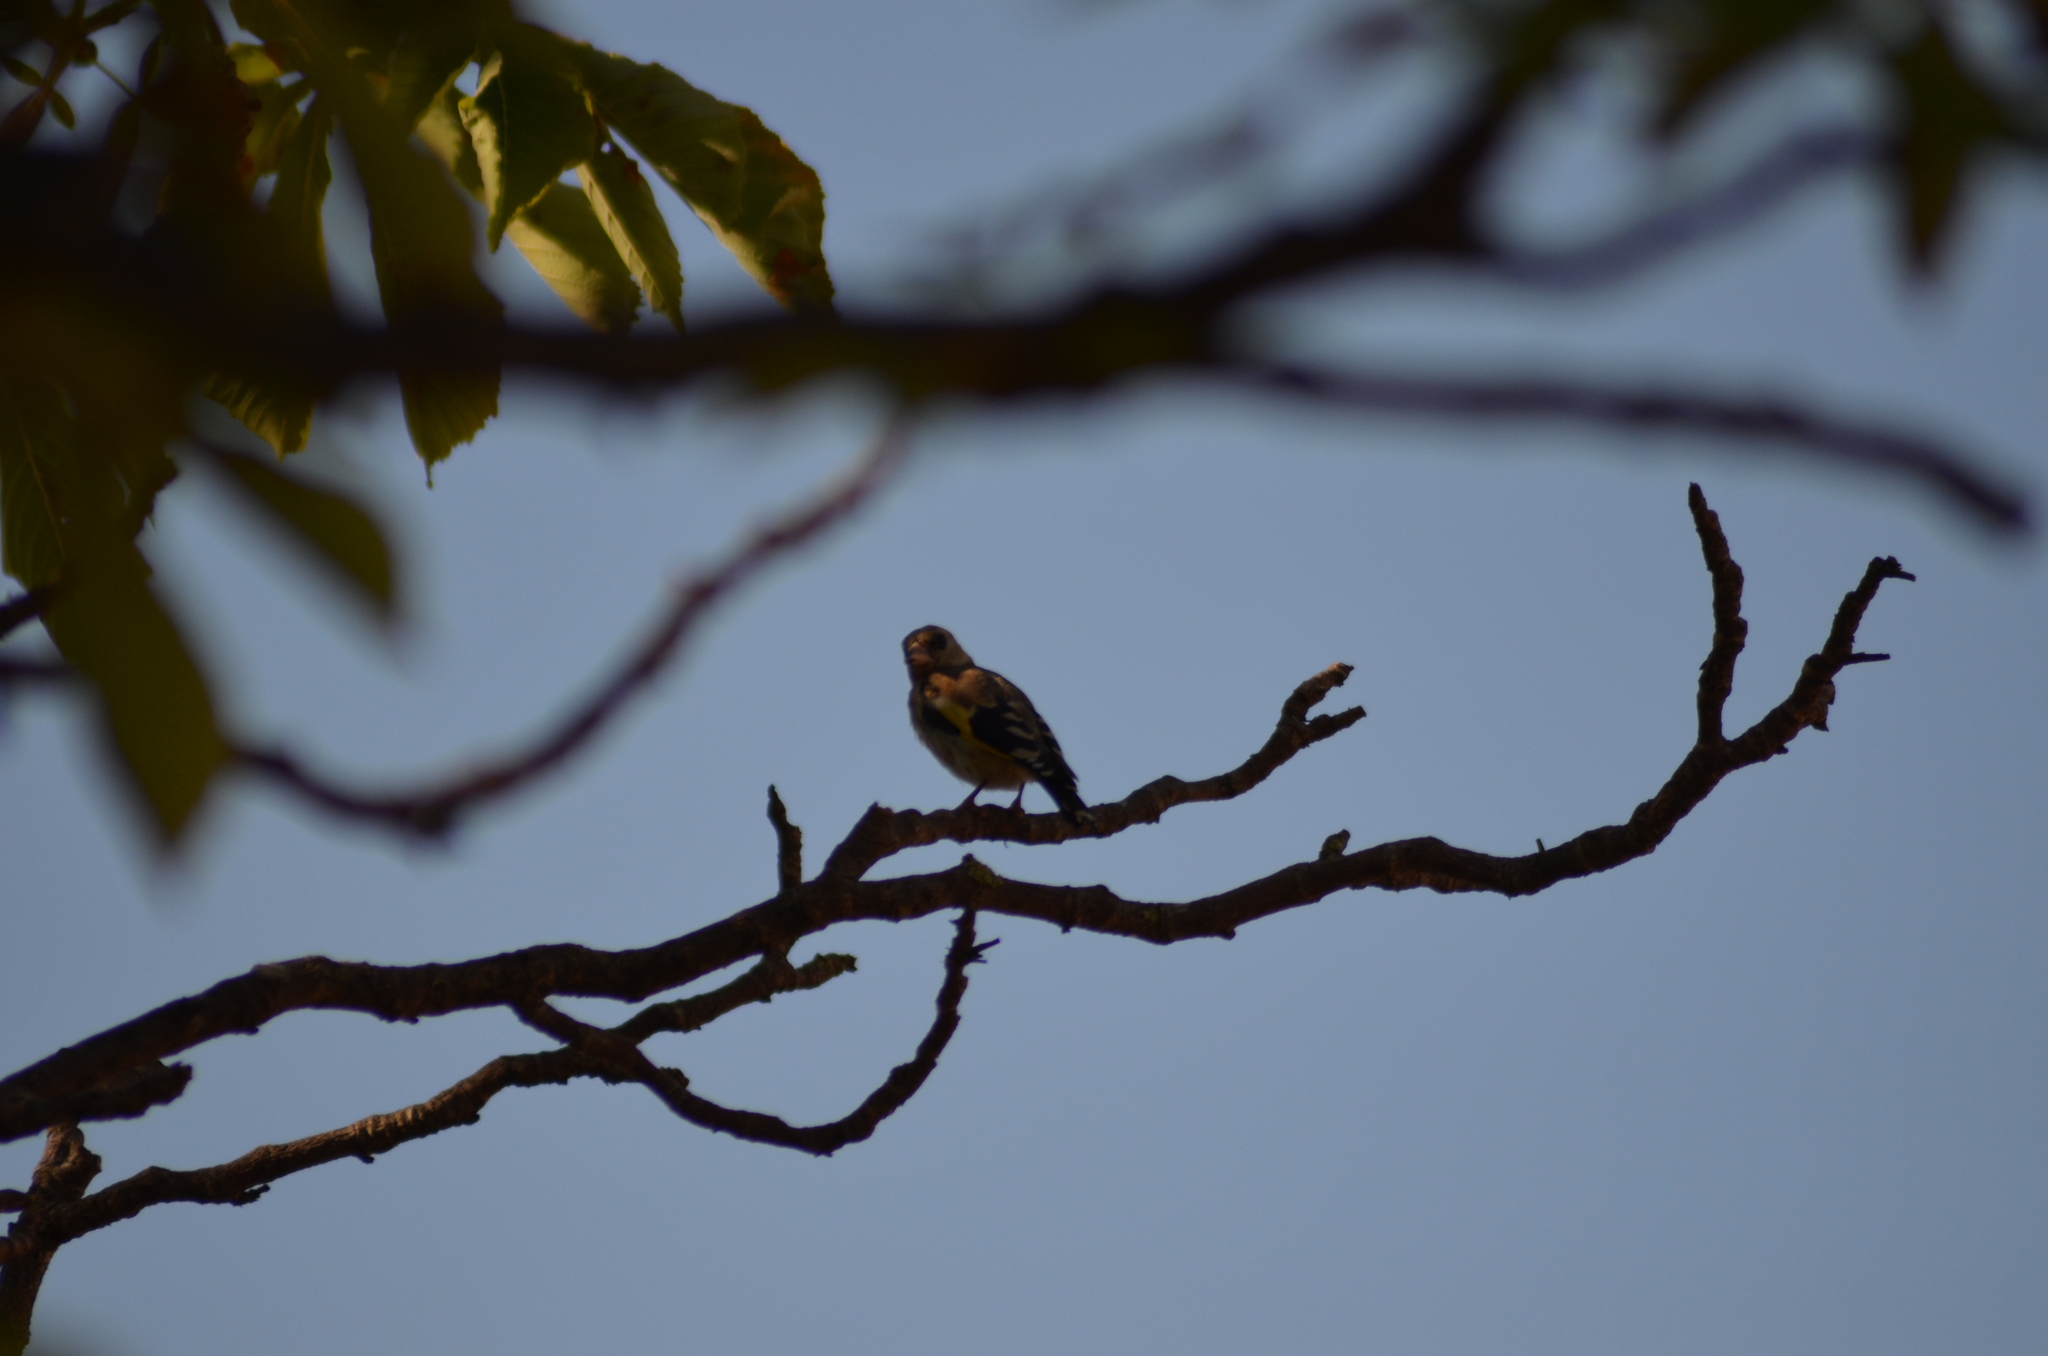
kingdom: Animalia
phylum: Chordata
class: Aves
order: Passeriformes
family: Fringillidae
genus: Carduelis
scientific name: Carduelis carduelis
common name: European goldfinch
